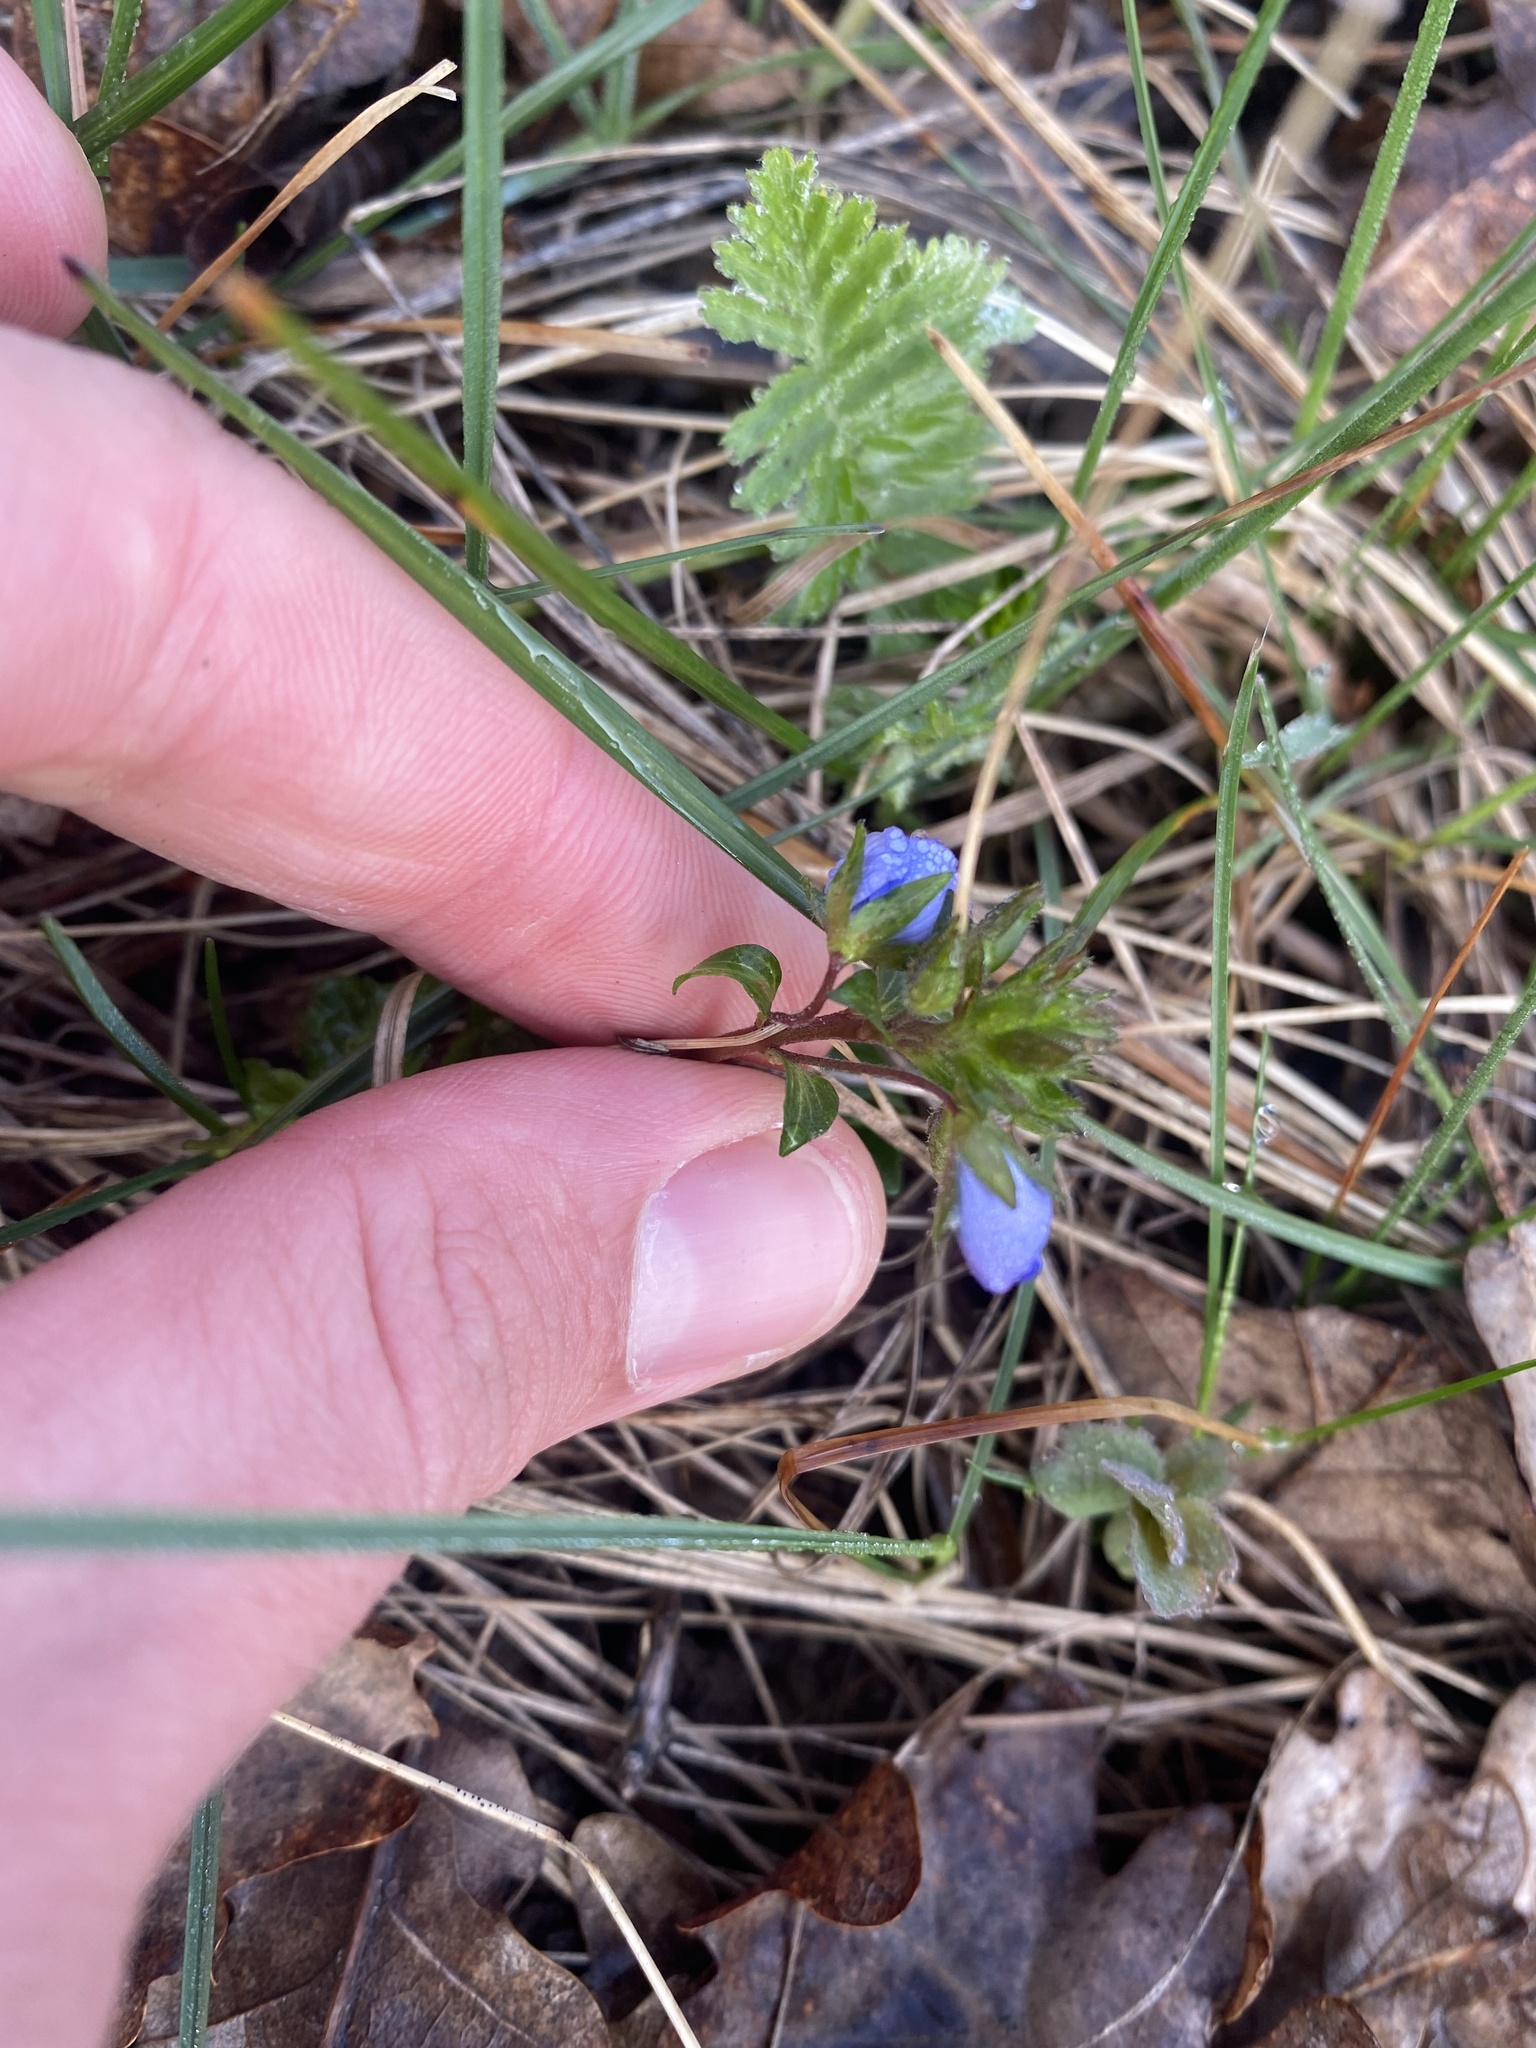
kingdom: Plantae
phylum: Tracheophyta
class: Magnoliopsida
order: Lamiales
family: Plantaginaceae
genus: Veronica
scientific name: Veronica
